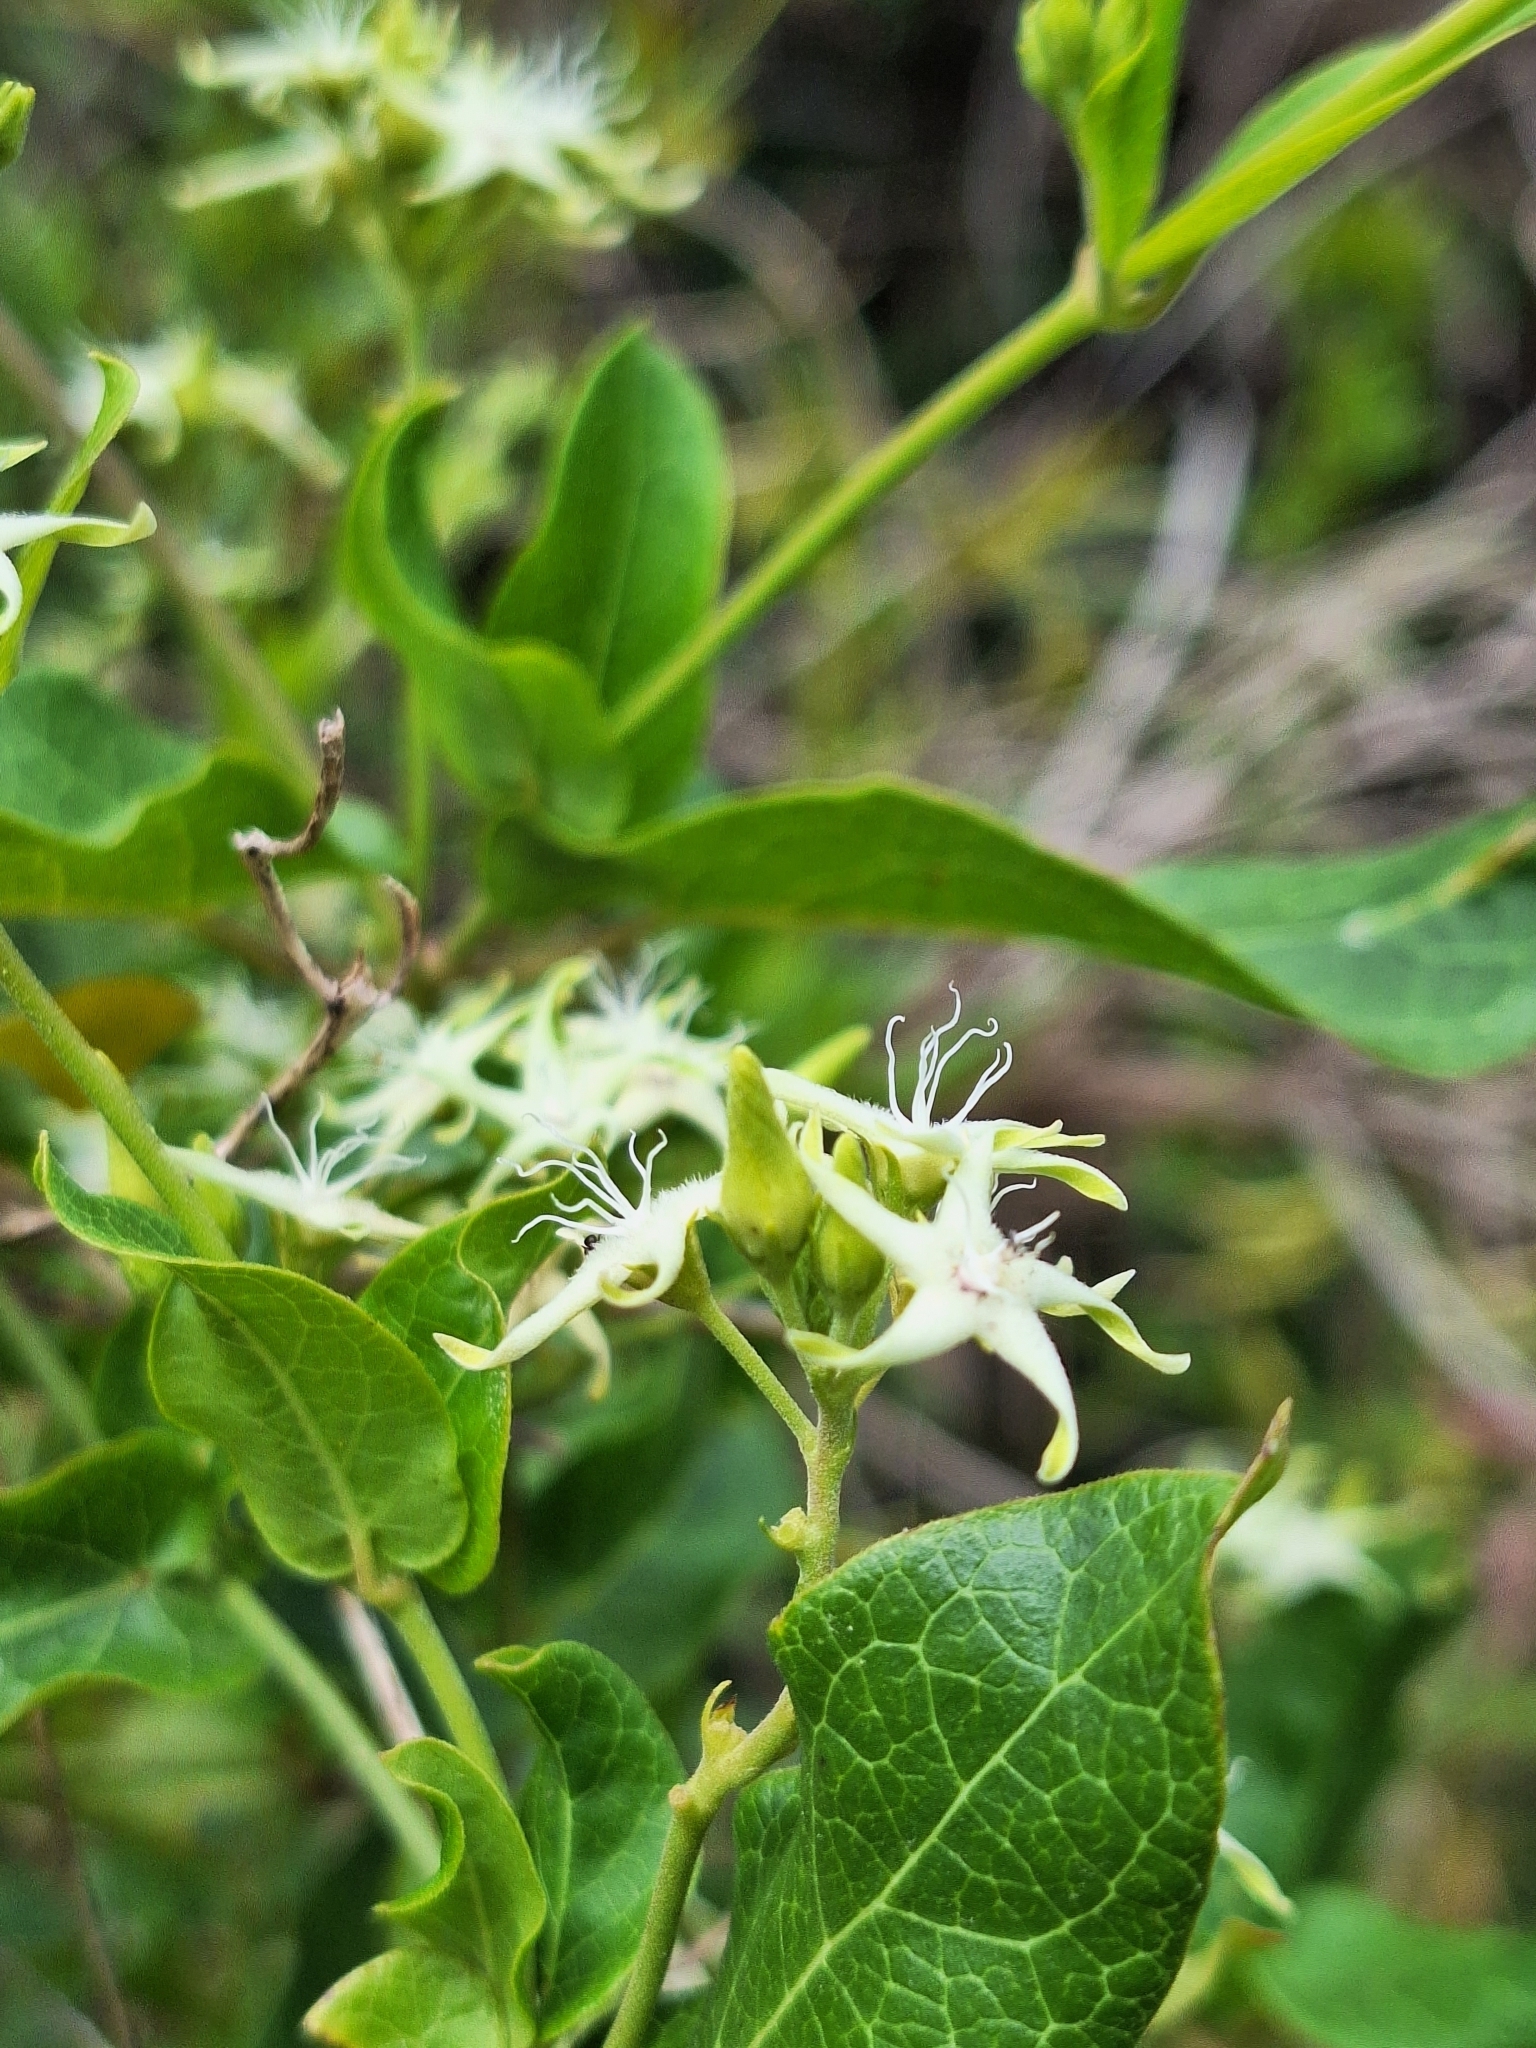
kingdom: Plantae
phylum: Tracheophyta
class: Magnoliopsida
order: Gentianales
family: Apocynaceae
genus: Oxypetalum
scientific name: Oxypetalum sylvestre
